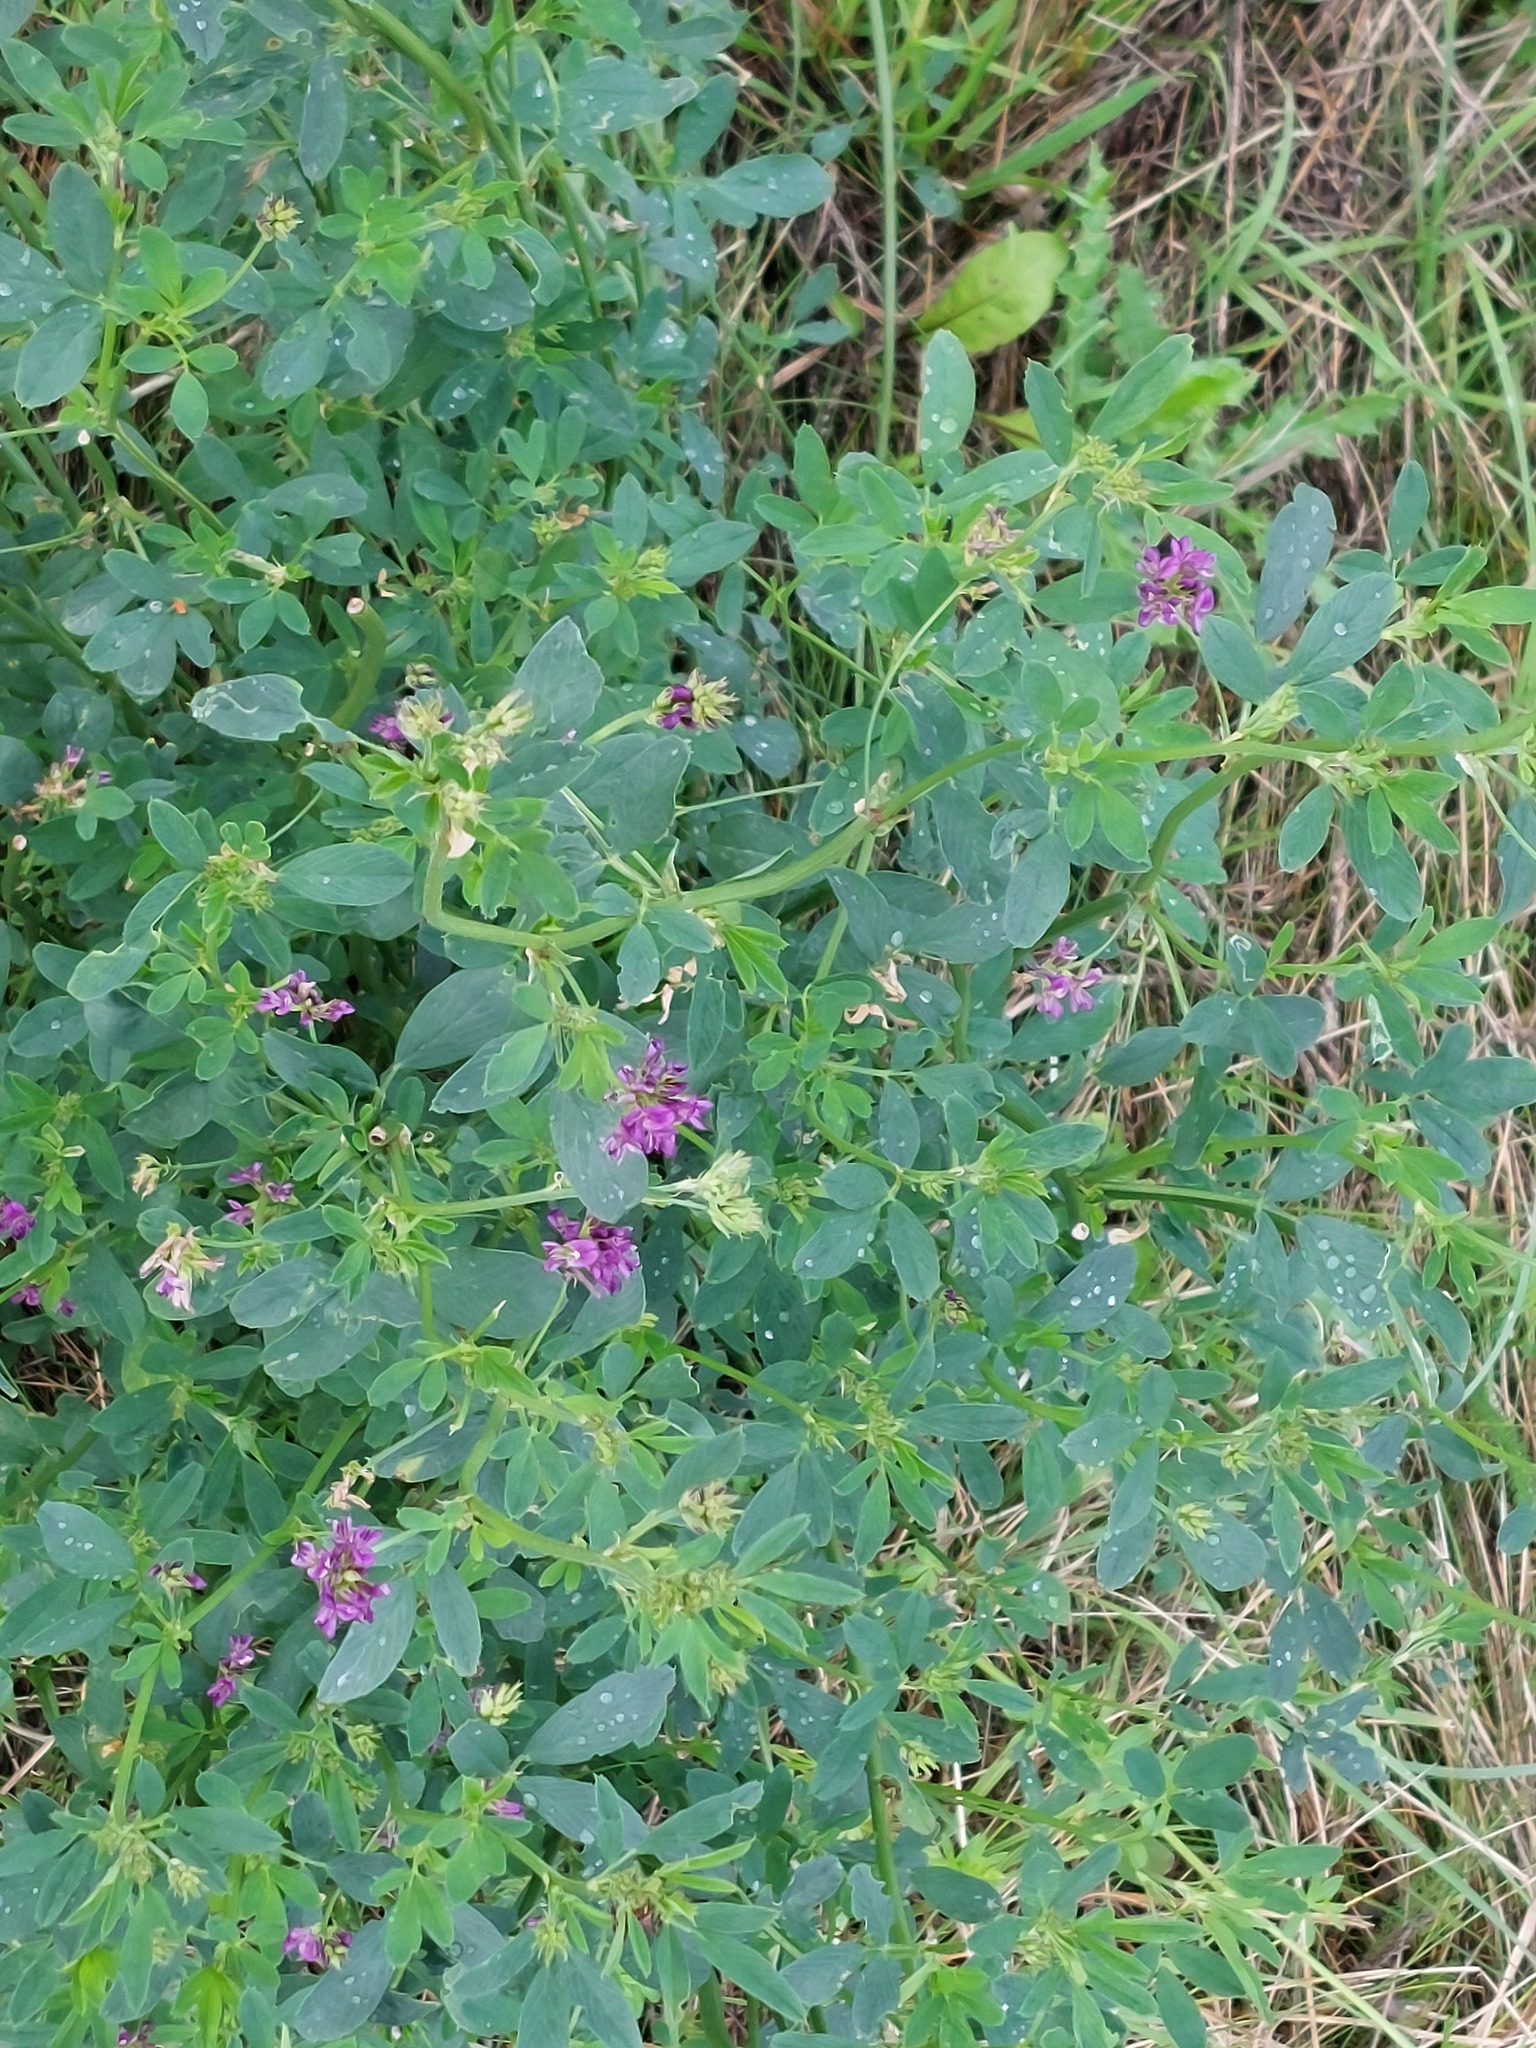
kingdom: Plantae
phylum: Tracheophyta
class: Magnoliopsida
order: Fabales
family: Fabaceae
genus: Medicago
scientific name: Medicago sativa
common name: Alfalfa
